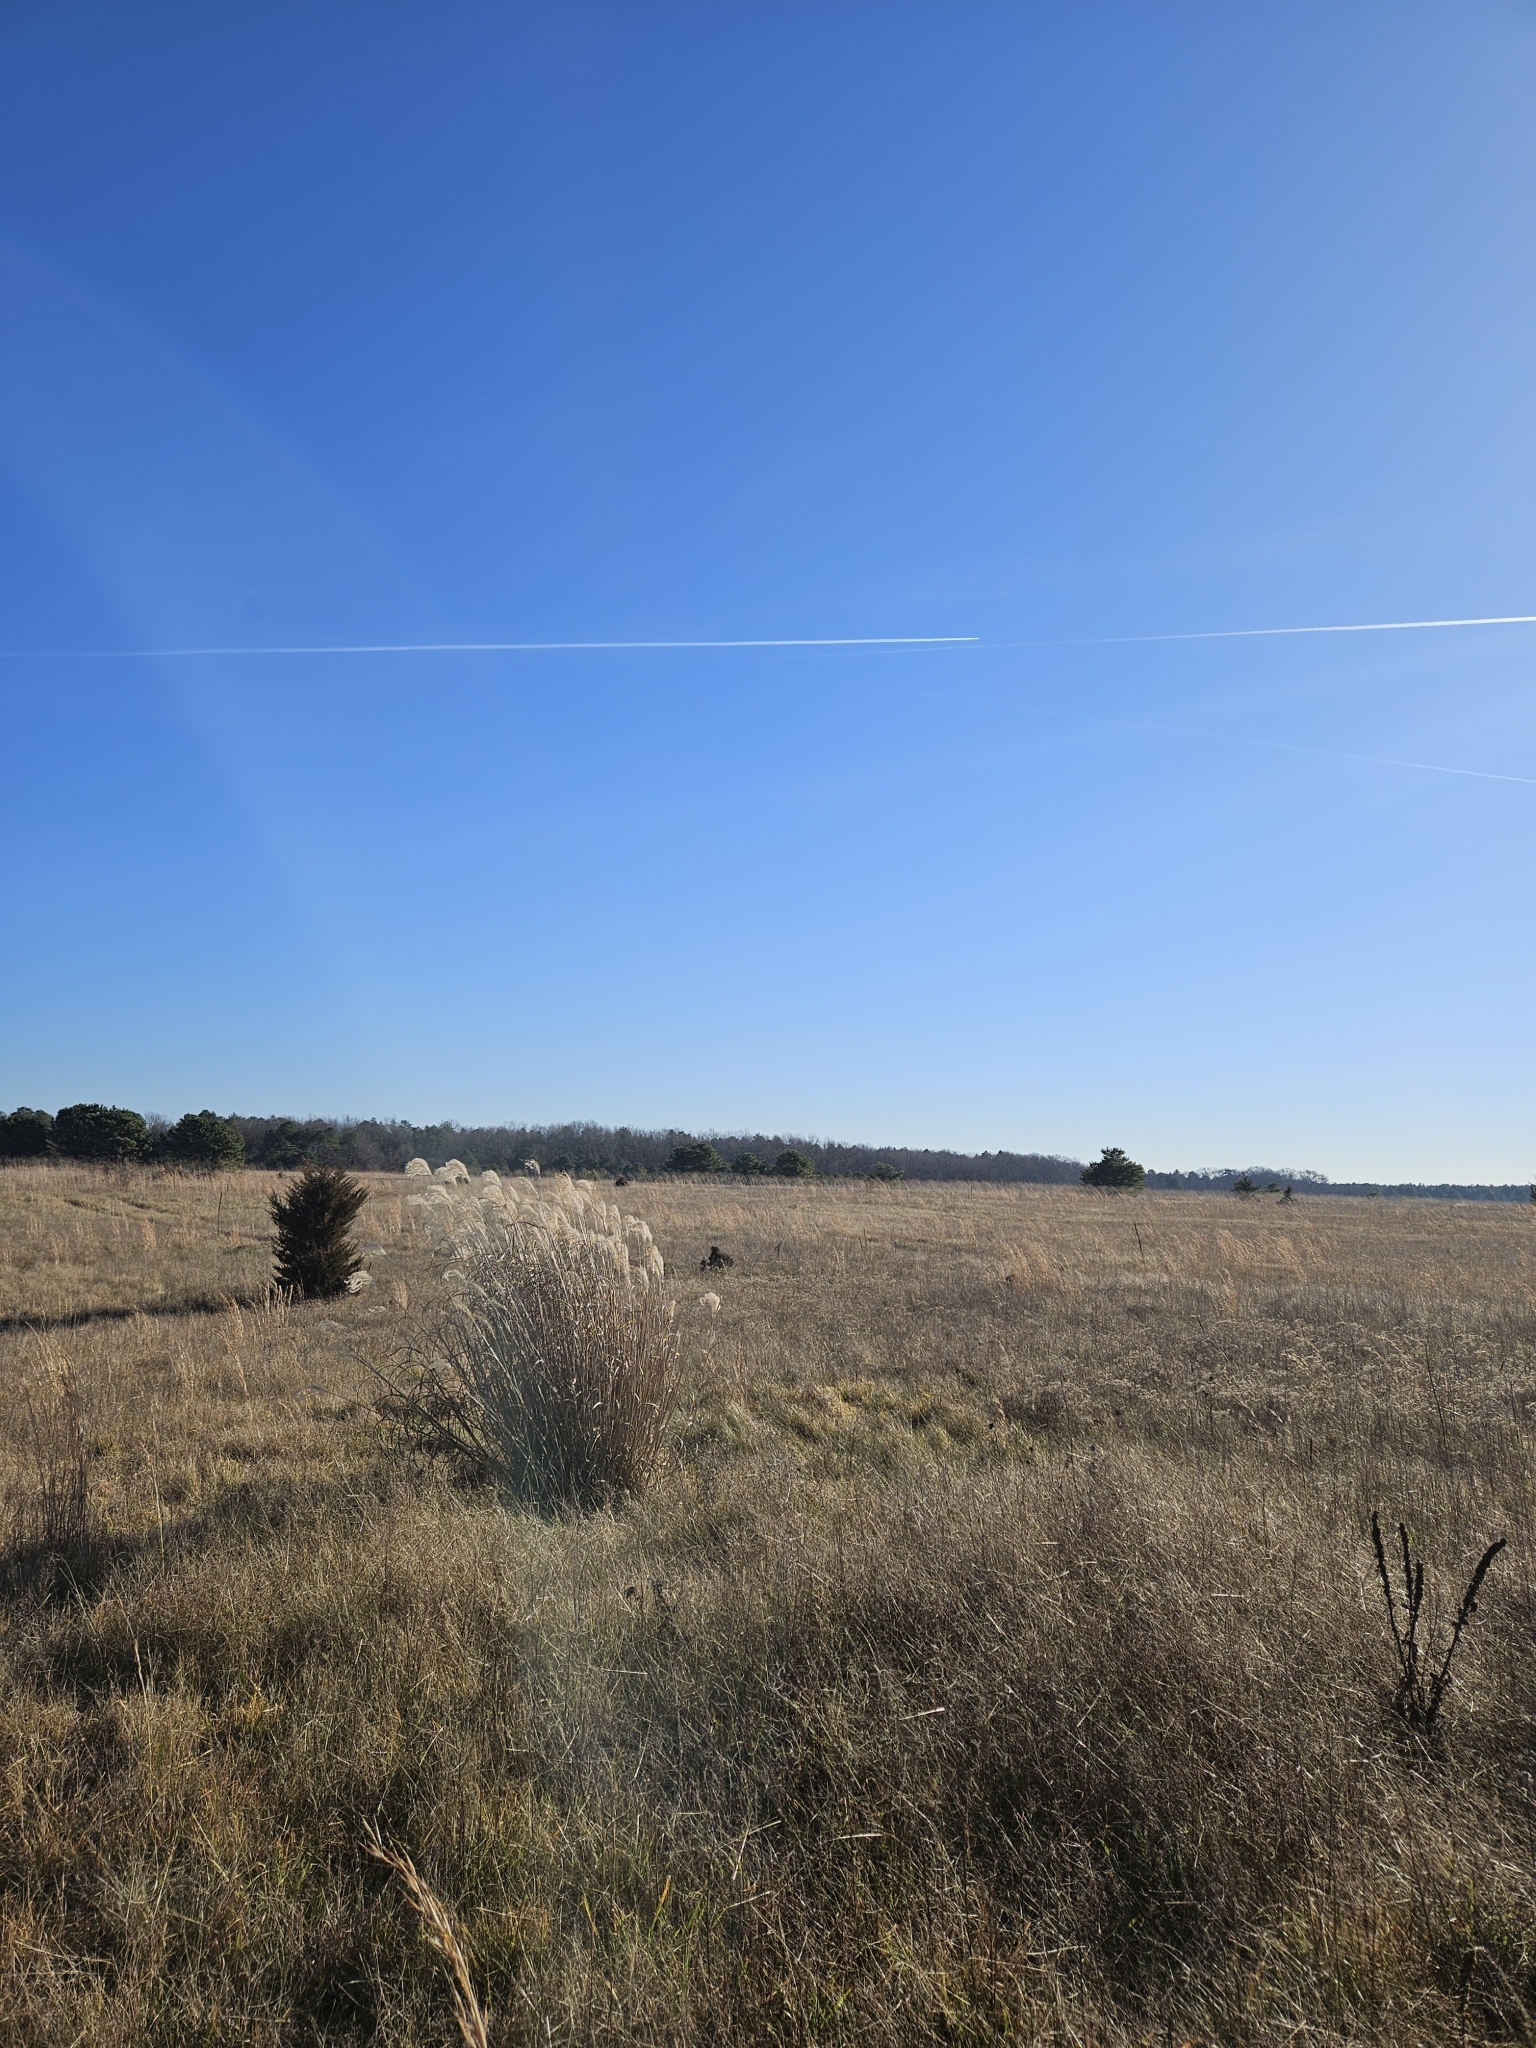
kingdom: Plantae
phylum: Tracheophyta
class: Liliopsida
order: Poales
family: Poaceae
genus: Miscanthus
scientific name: Miscanthus sinensis
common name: Chinese silvergrass
